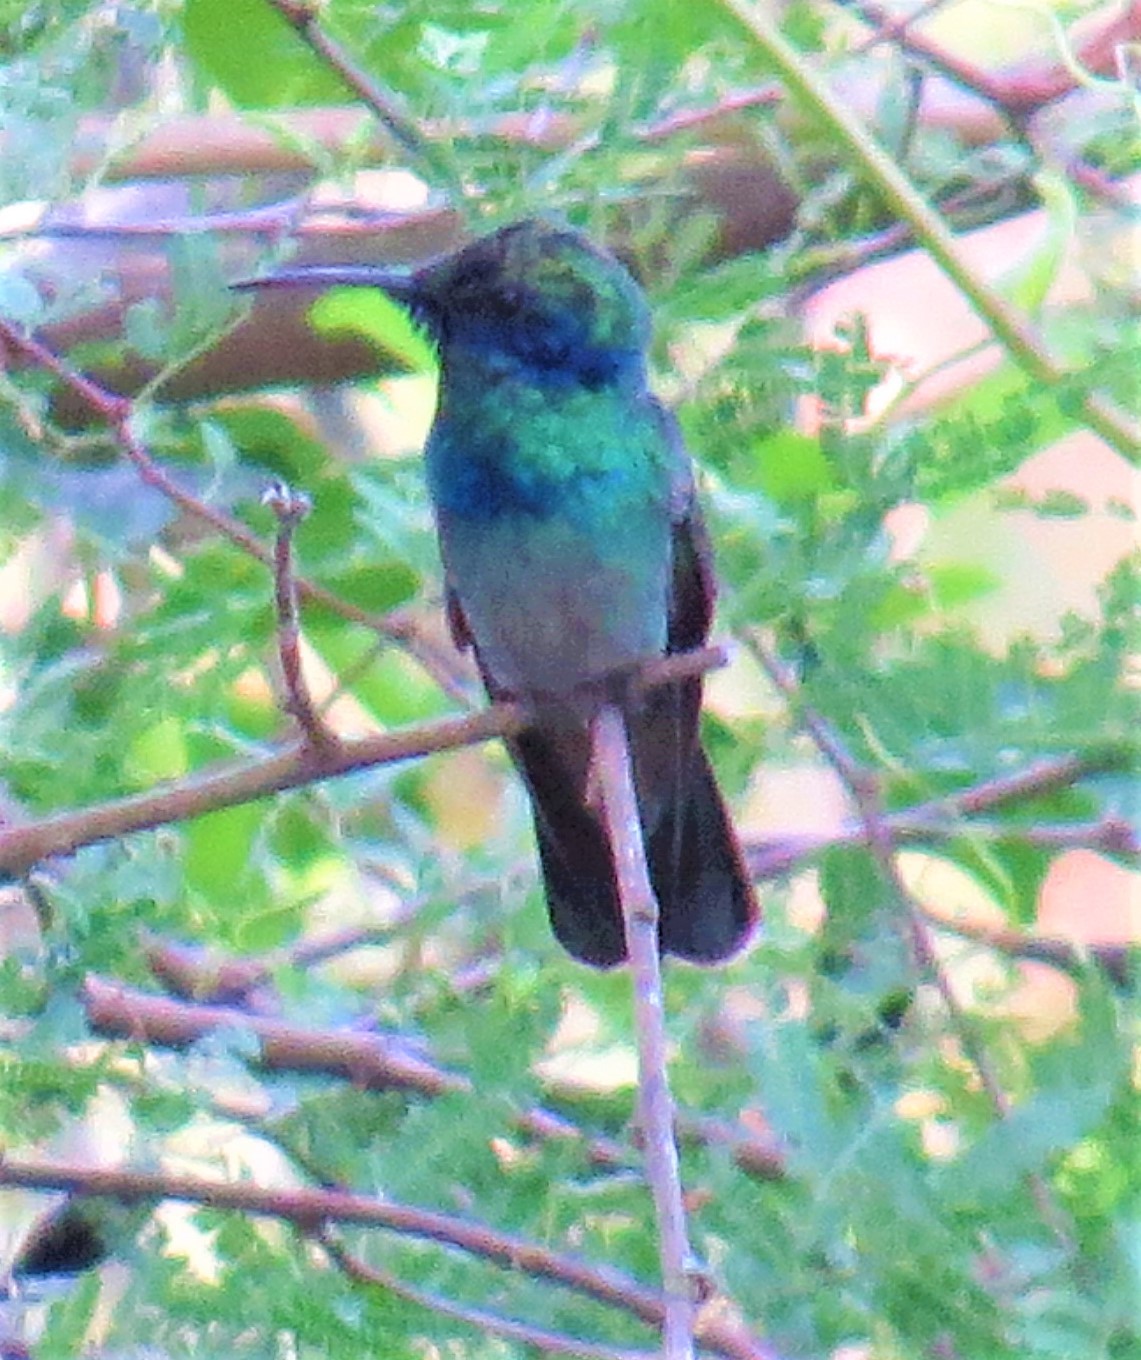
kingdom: Animalia
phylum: Chordata
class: Aves
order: Apodiformes
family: Trochilidae
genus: Colibri
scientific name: Colibri thalassinus
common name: Green violetear
